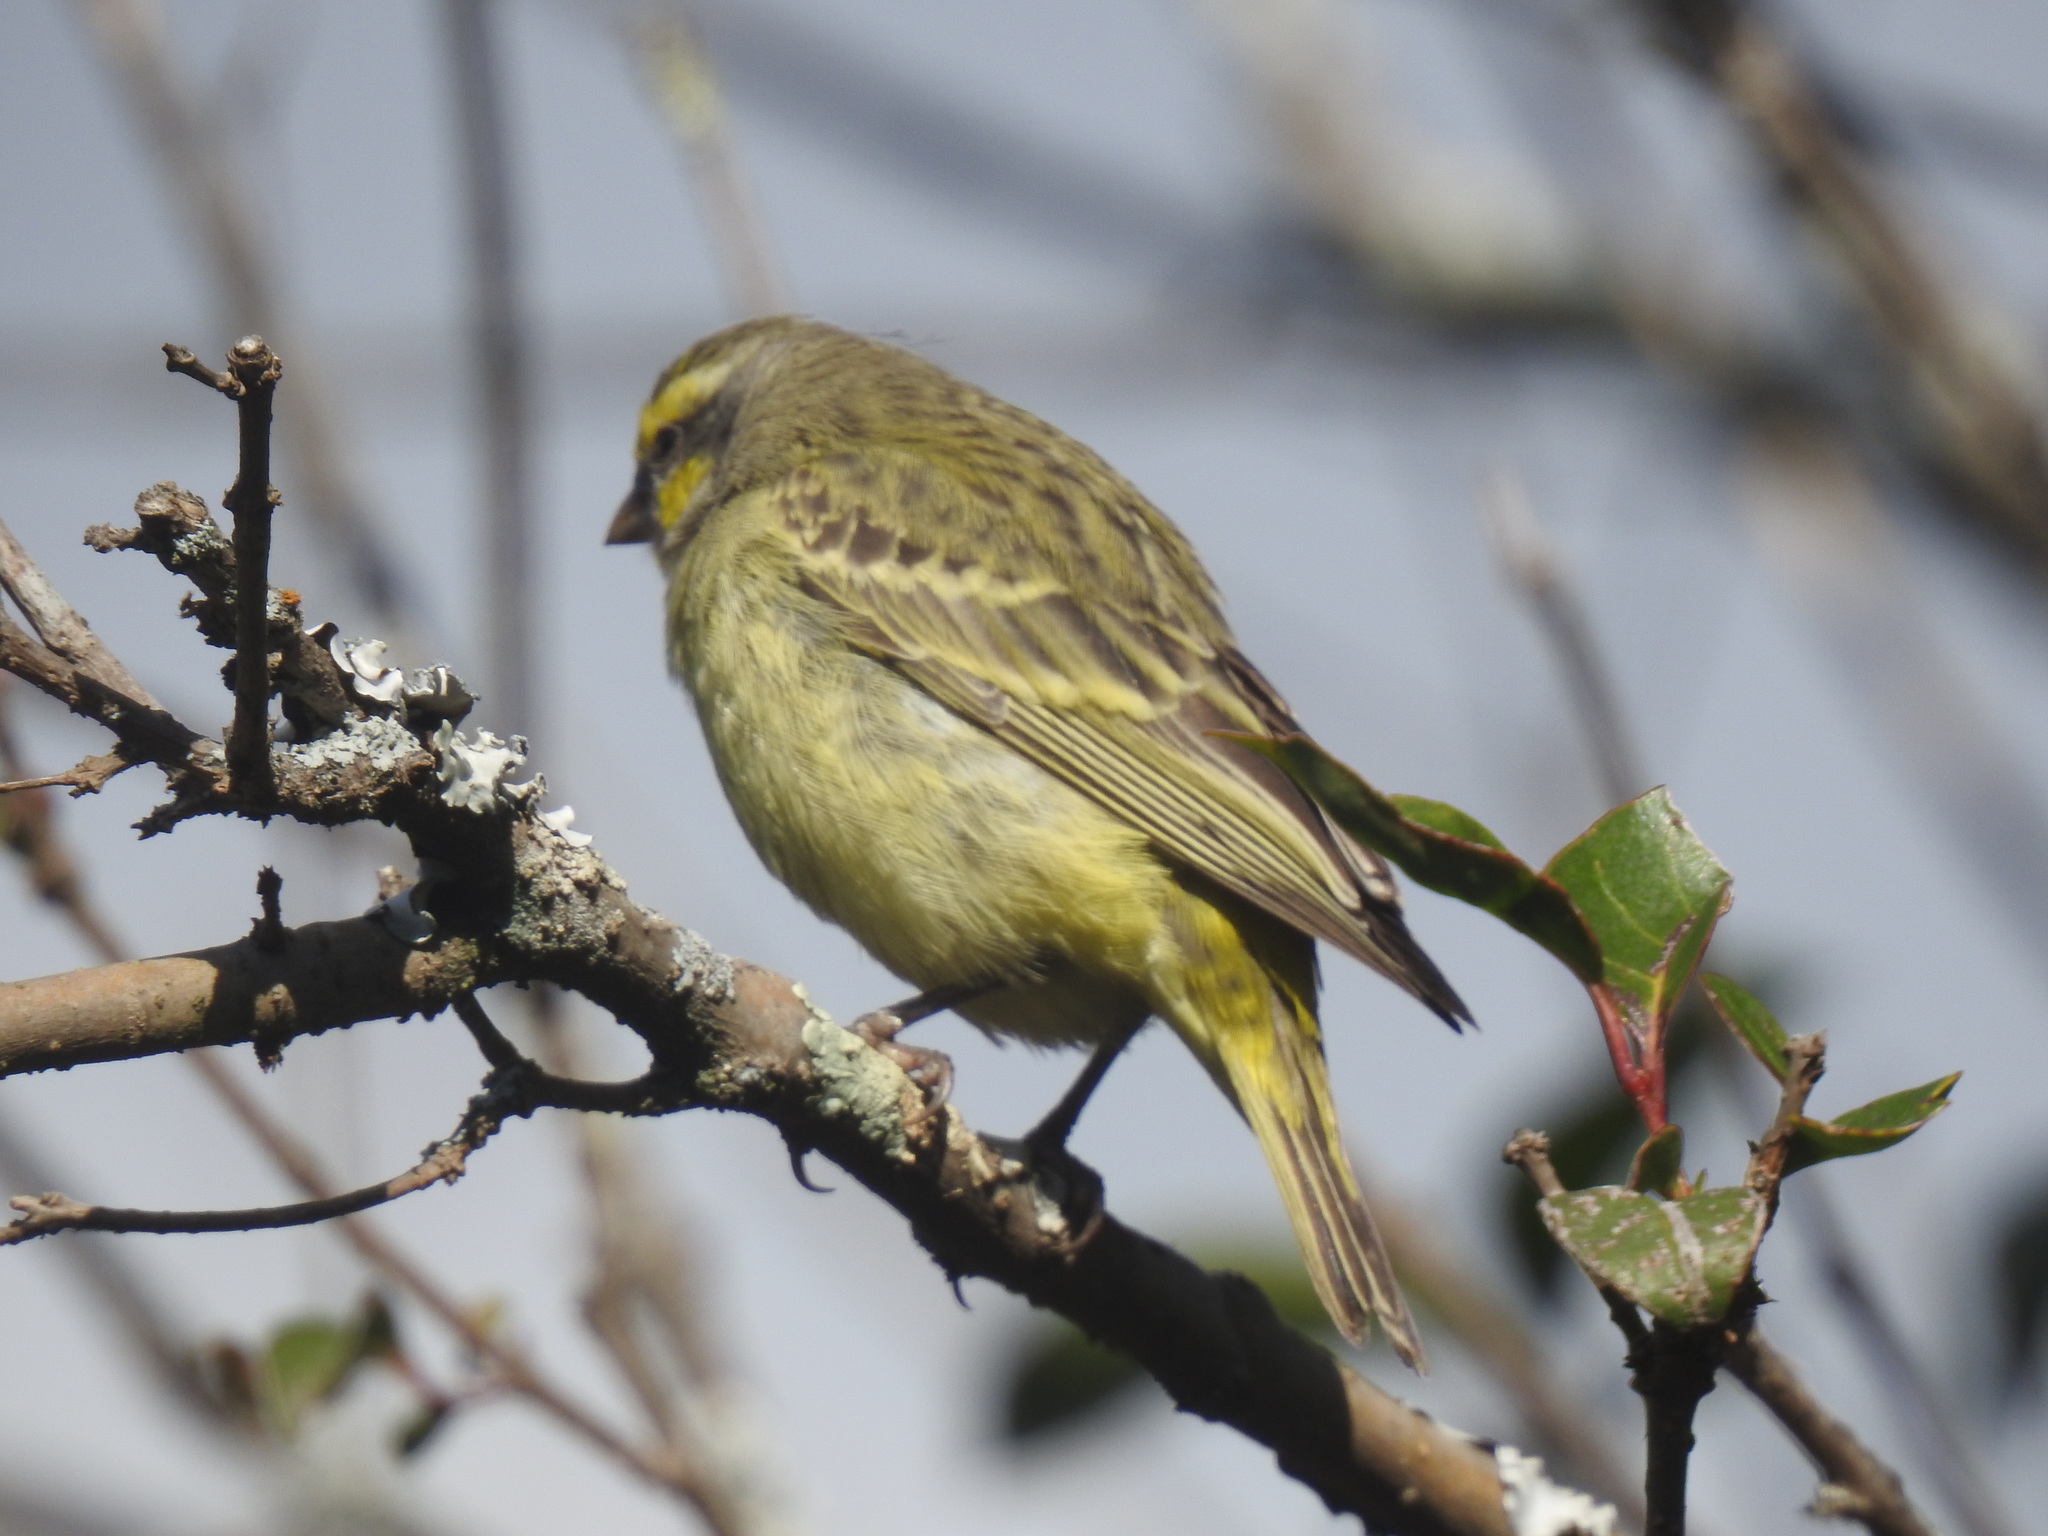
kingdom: Animalia
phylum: Chordata
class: Aves
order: Passeriformes
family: Fringillidae
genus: Crithagra
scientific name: Crithagra mozambica
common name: Yellow-fronted canary
